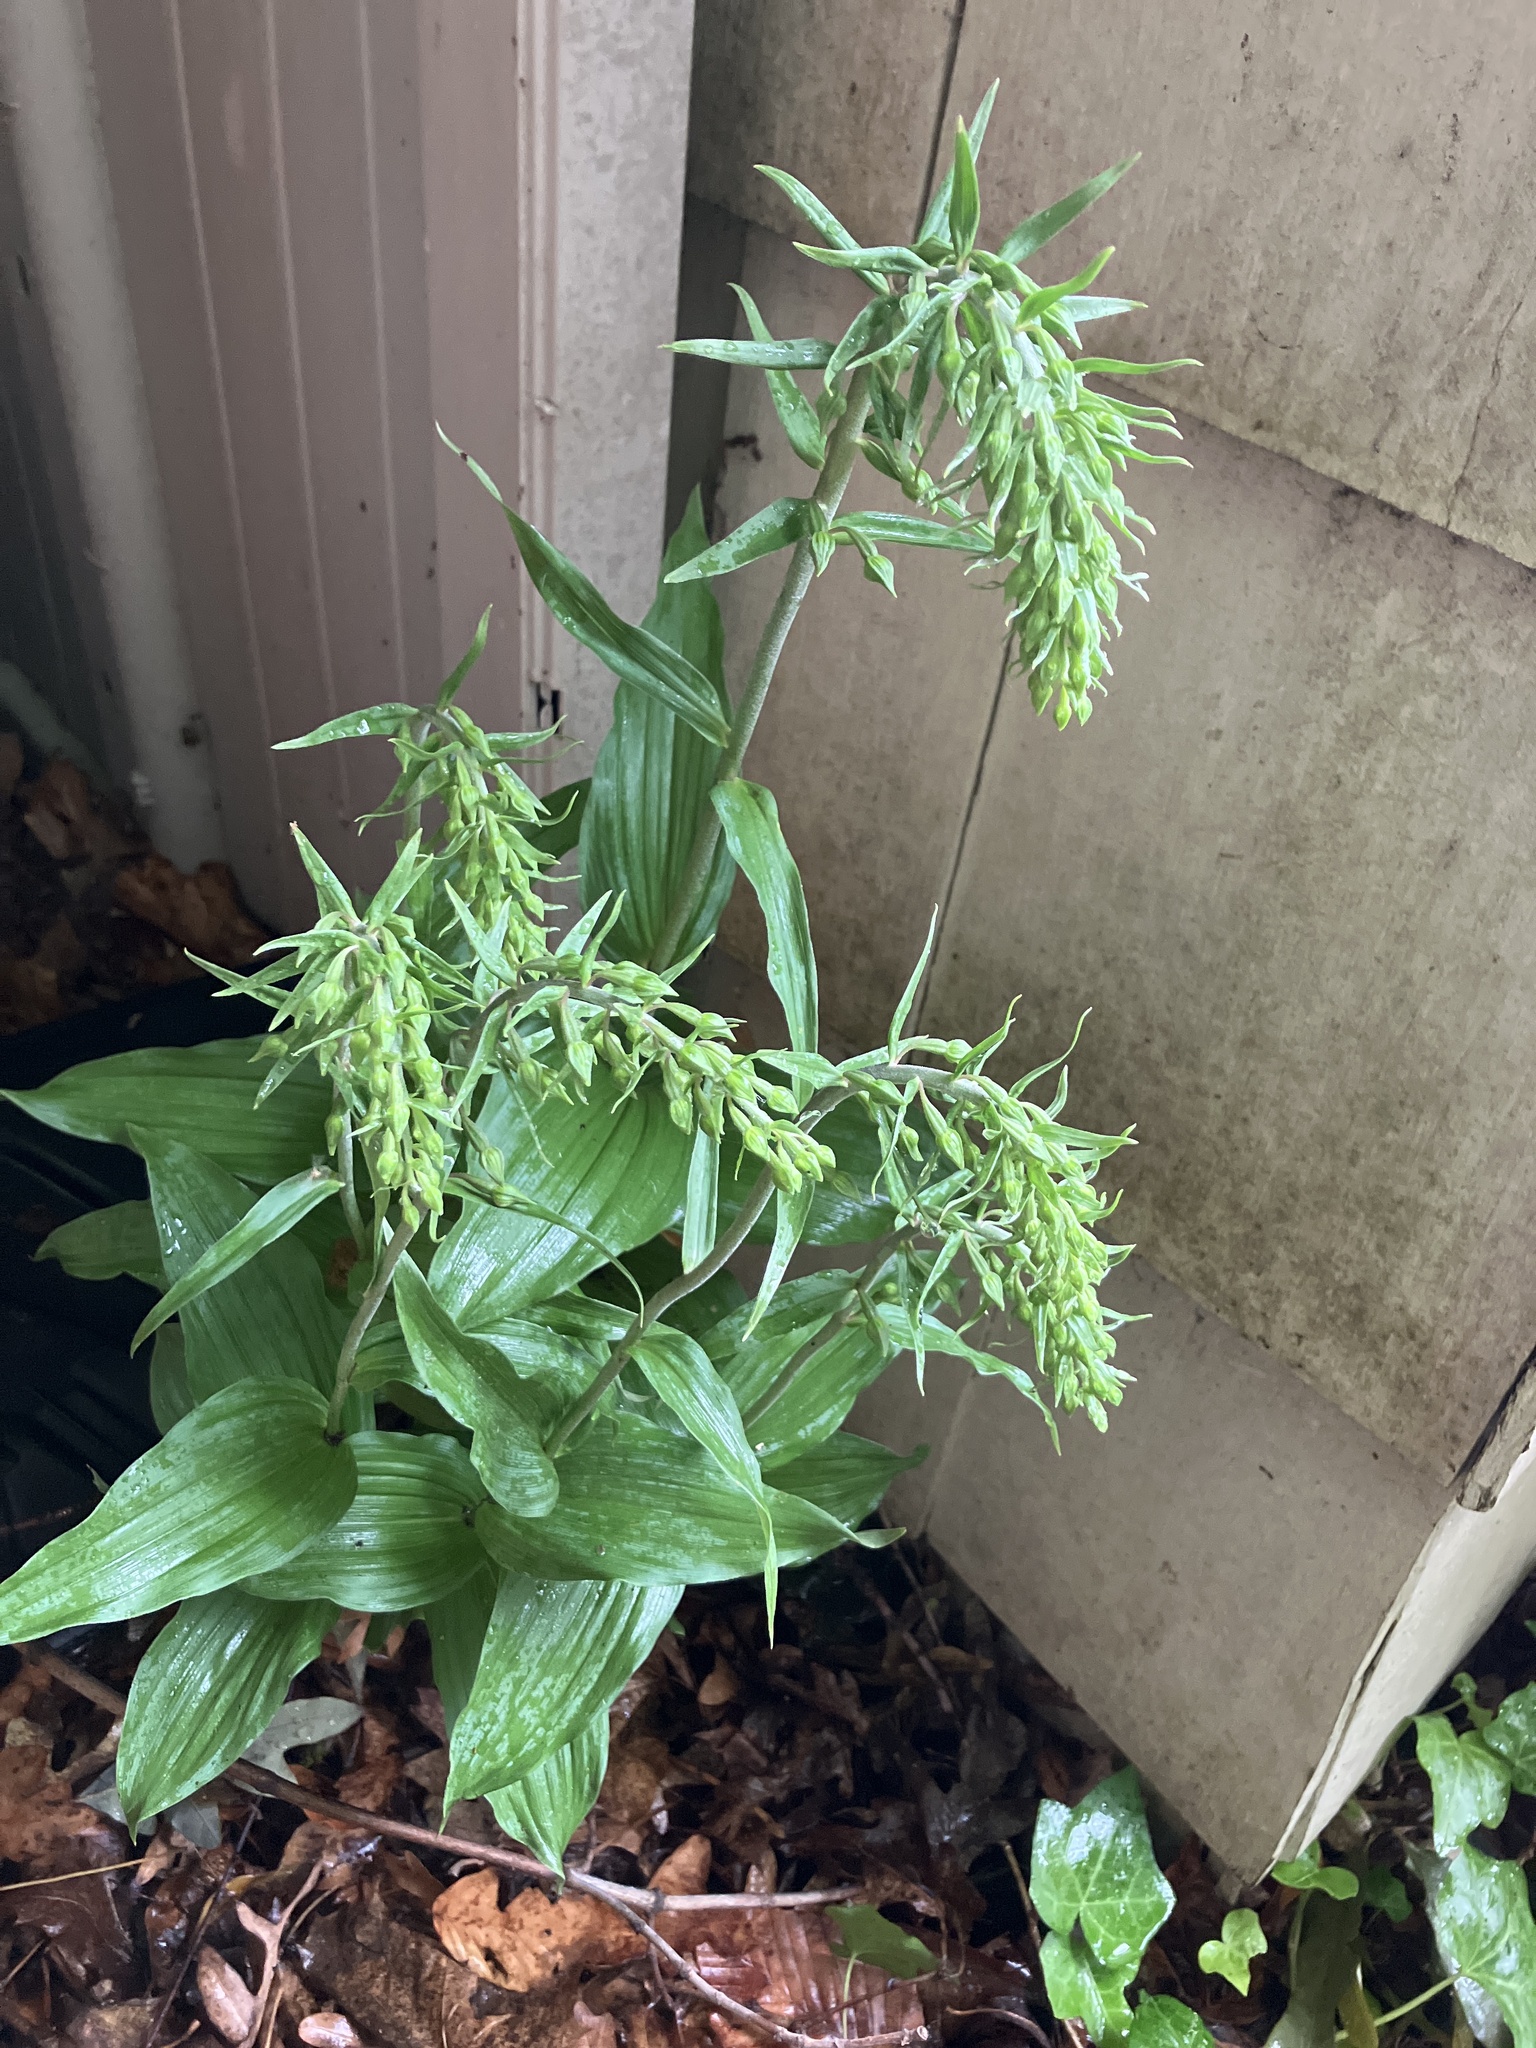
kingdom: Plantae
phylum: Tracheophyta
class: Liliopsida
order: Asparagales
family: Orchidaceae
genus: Epipactis
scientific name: Epipactis helleborine
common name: Broad-leaved helleborine
